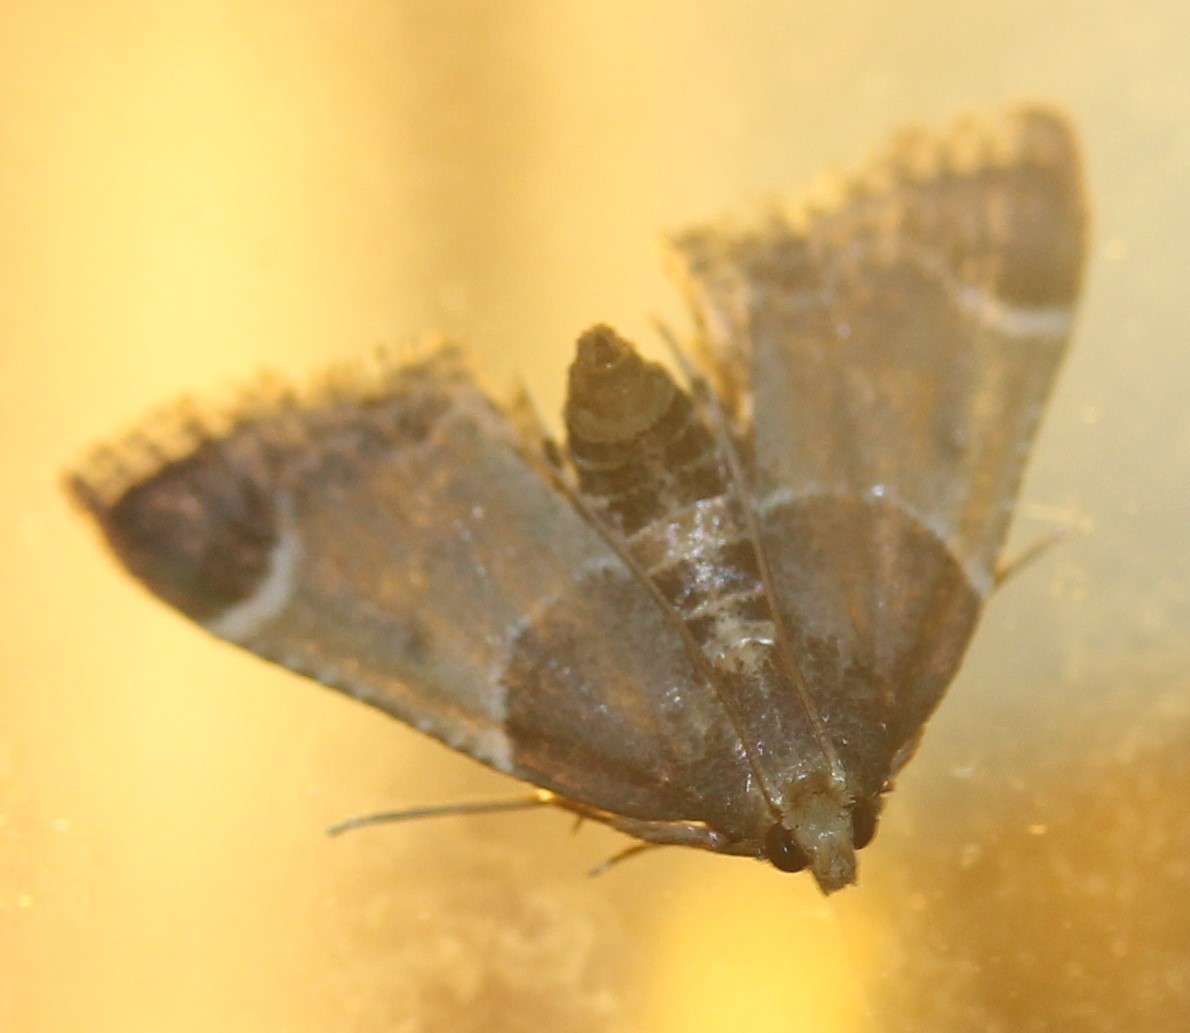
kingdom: Animalia
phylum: Arthropoda
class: Insecta
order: Lepidoptera
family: Pyralidae
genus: Pyralis
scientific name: Pyralis farinalis
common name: Meal moth
